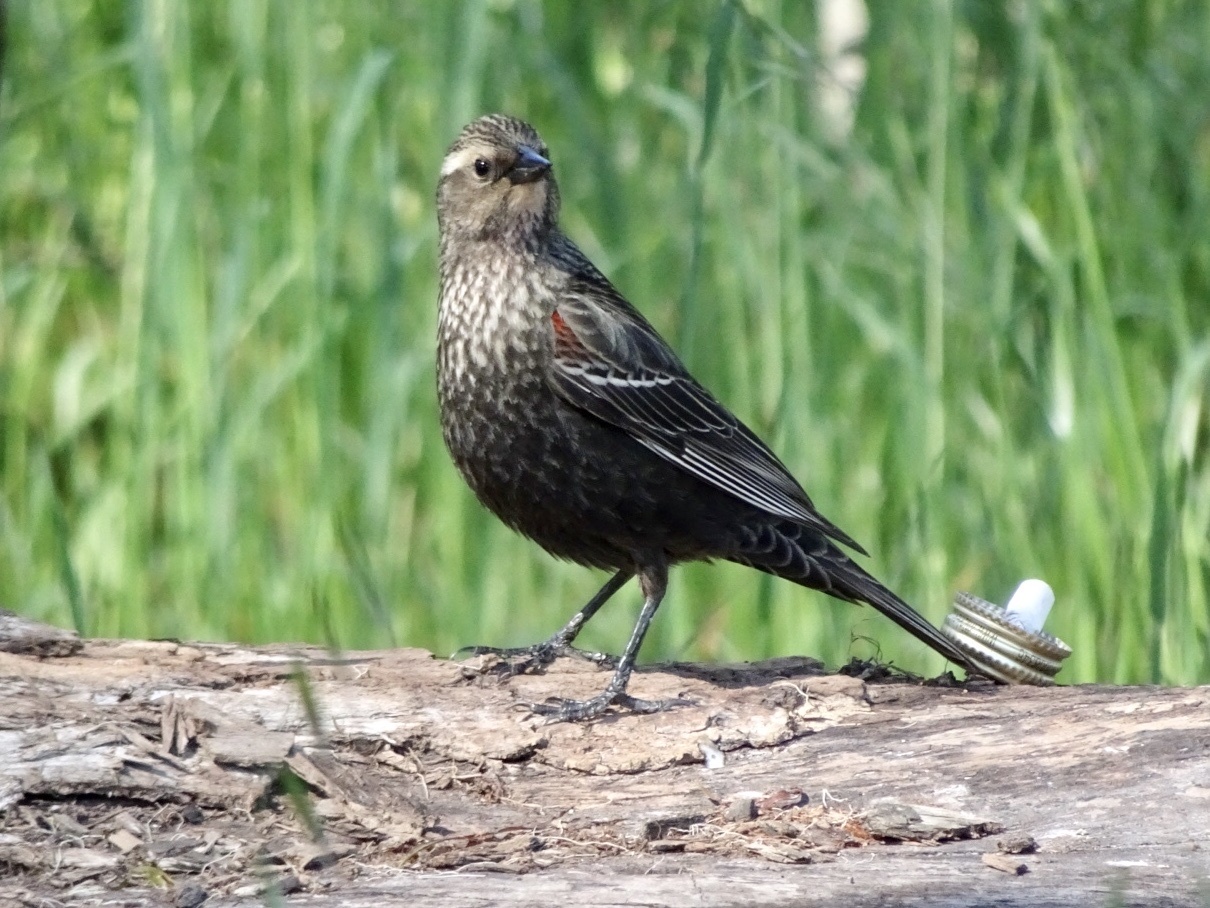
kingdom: Animalia
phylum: Chordata
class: Aves
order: Passeriformes
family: Icteridae
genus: Agelaius
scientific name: Agelaius phoeniceus
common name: Red-winged blackbird
